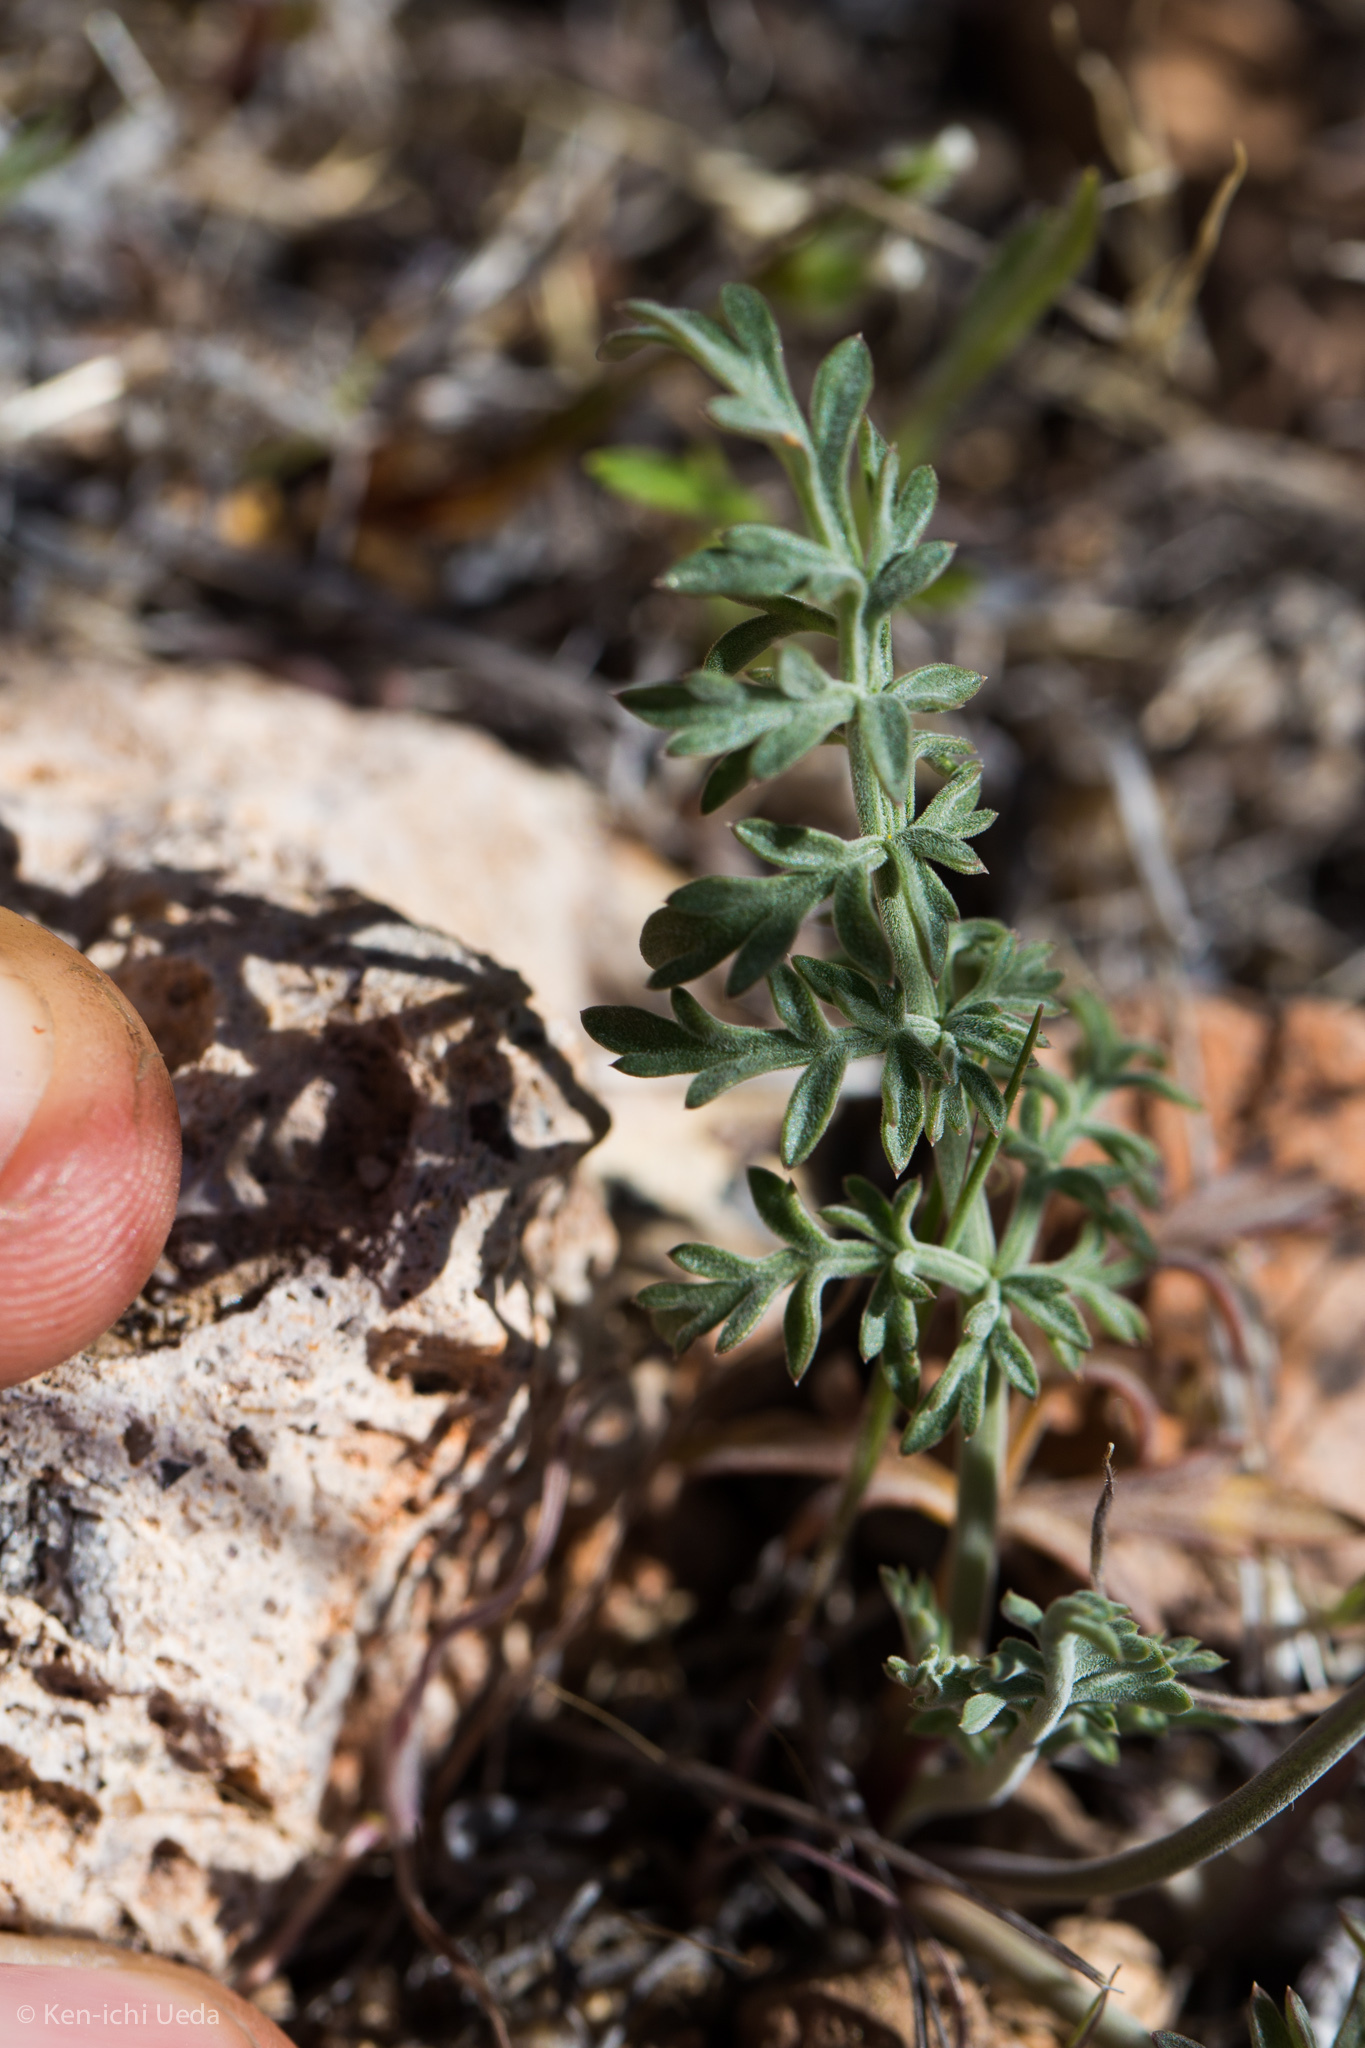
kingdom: Plantae
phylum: Tracheophyta
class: Magnoliopsida
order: Apiales
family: Apiaceae
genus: Lomatium
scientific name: Lomatium nevadense
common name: Nevada lomatium
